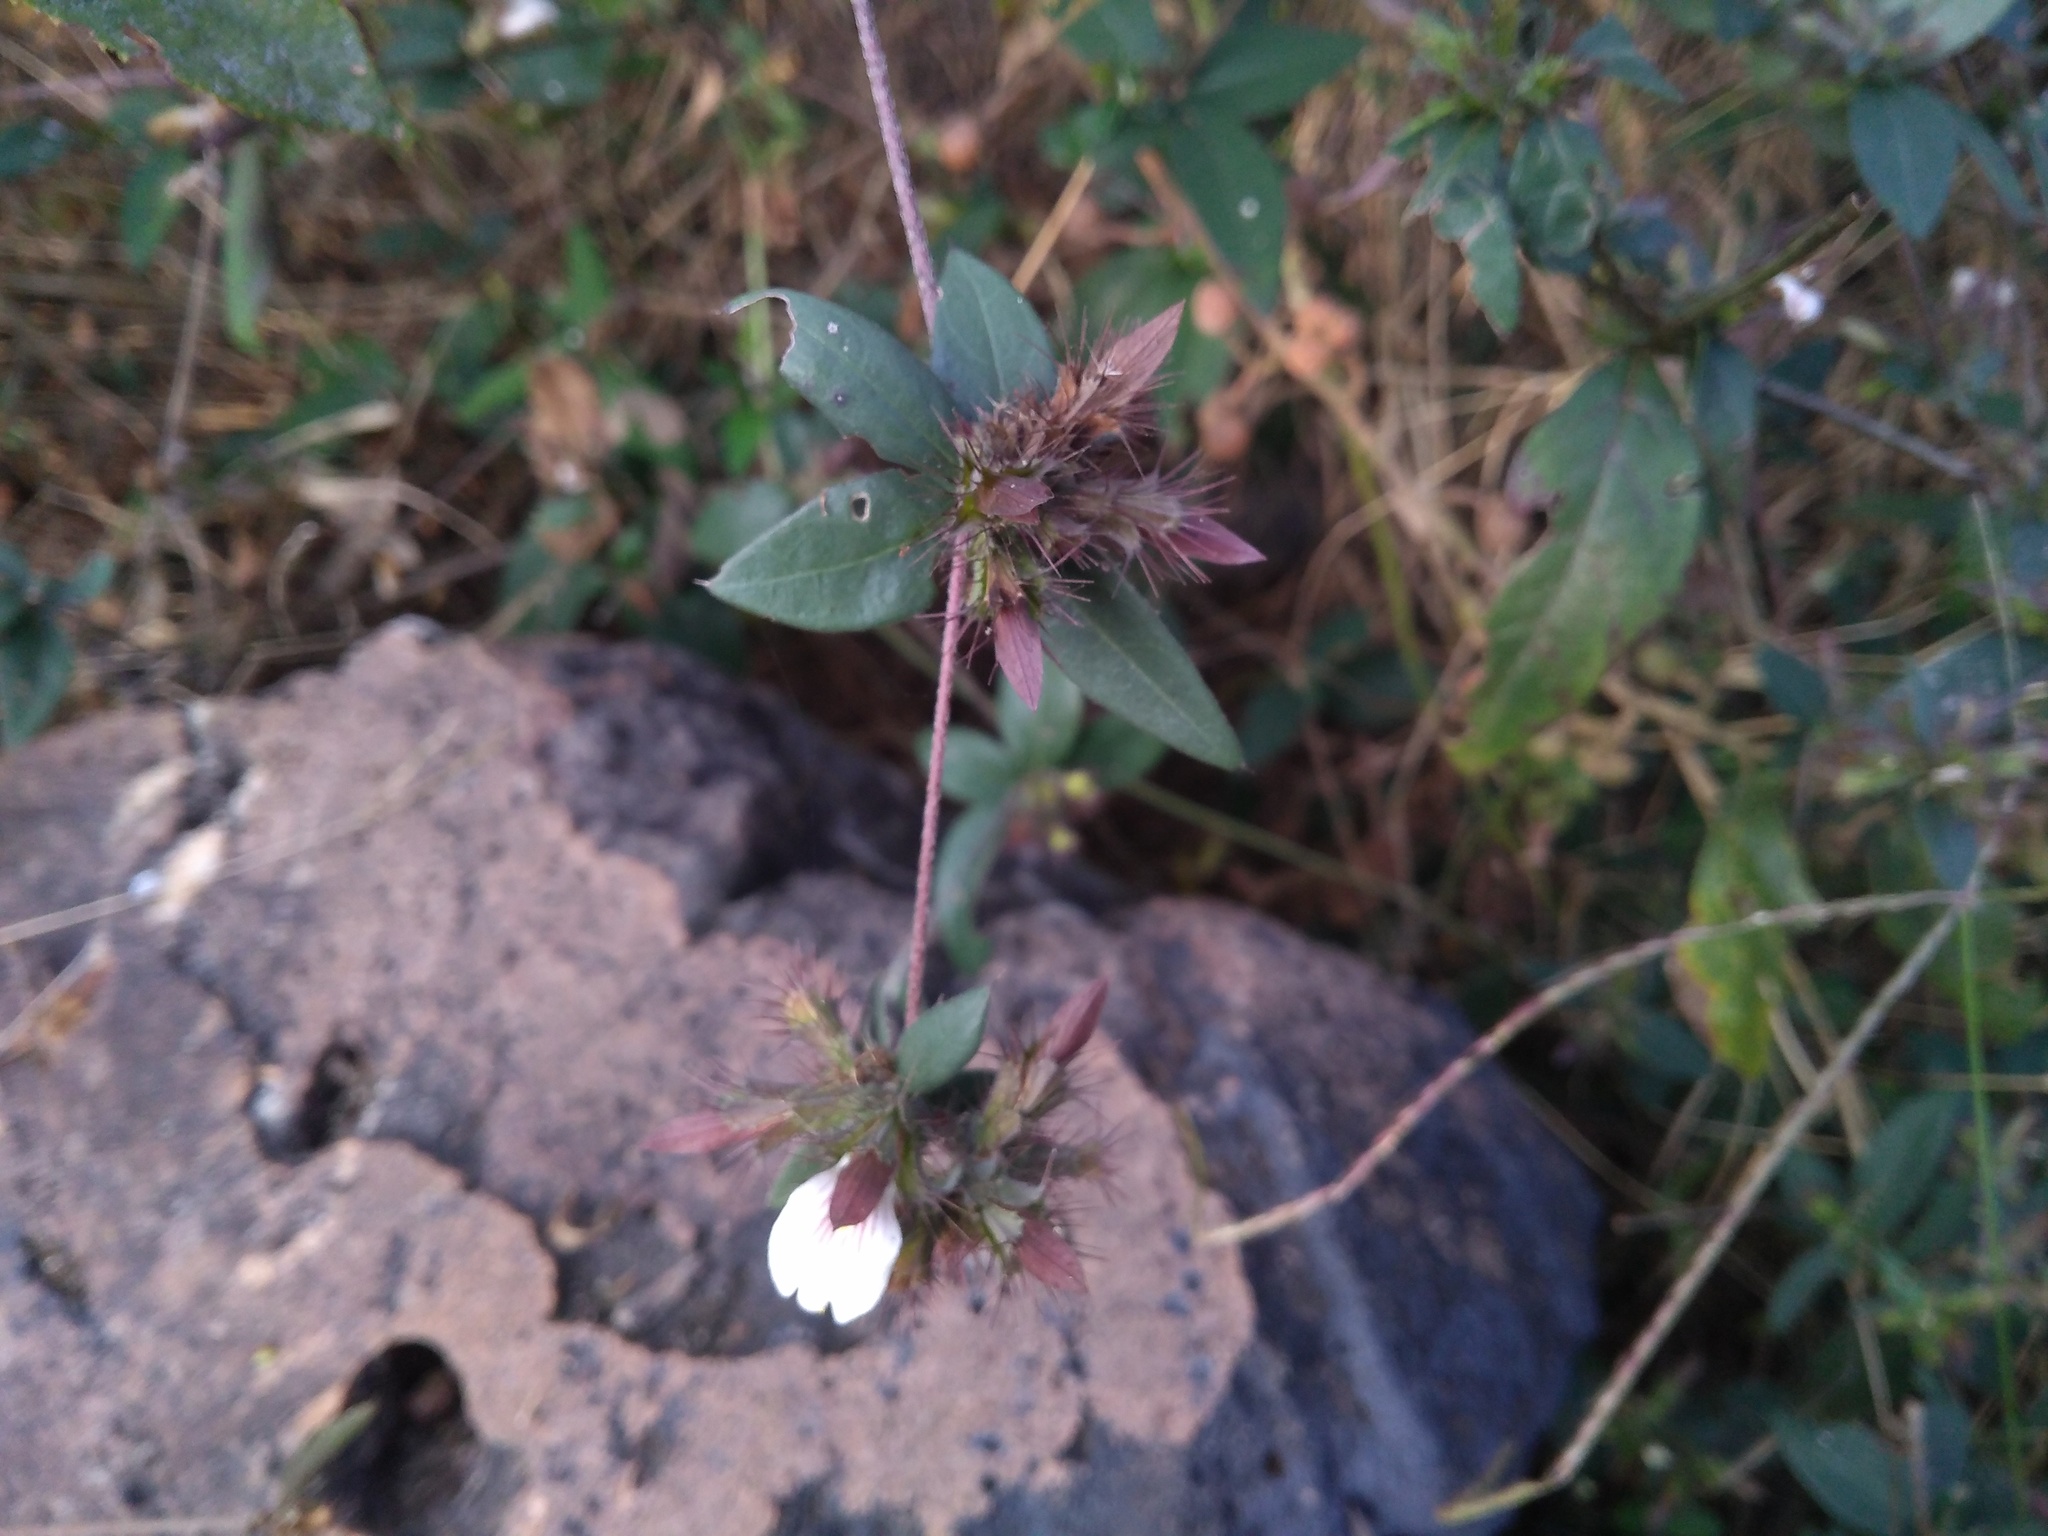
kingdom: Plantae
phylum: Tracheophyta
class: Magnoliopsida
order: Lamiales
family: Acanthaceae
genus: Blepharis
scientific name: Blepharis maderaspatensis
